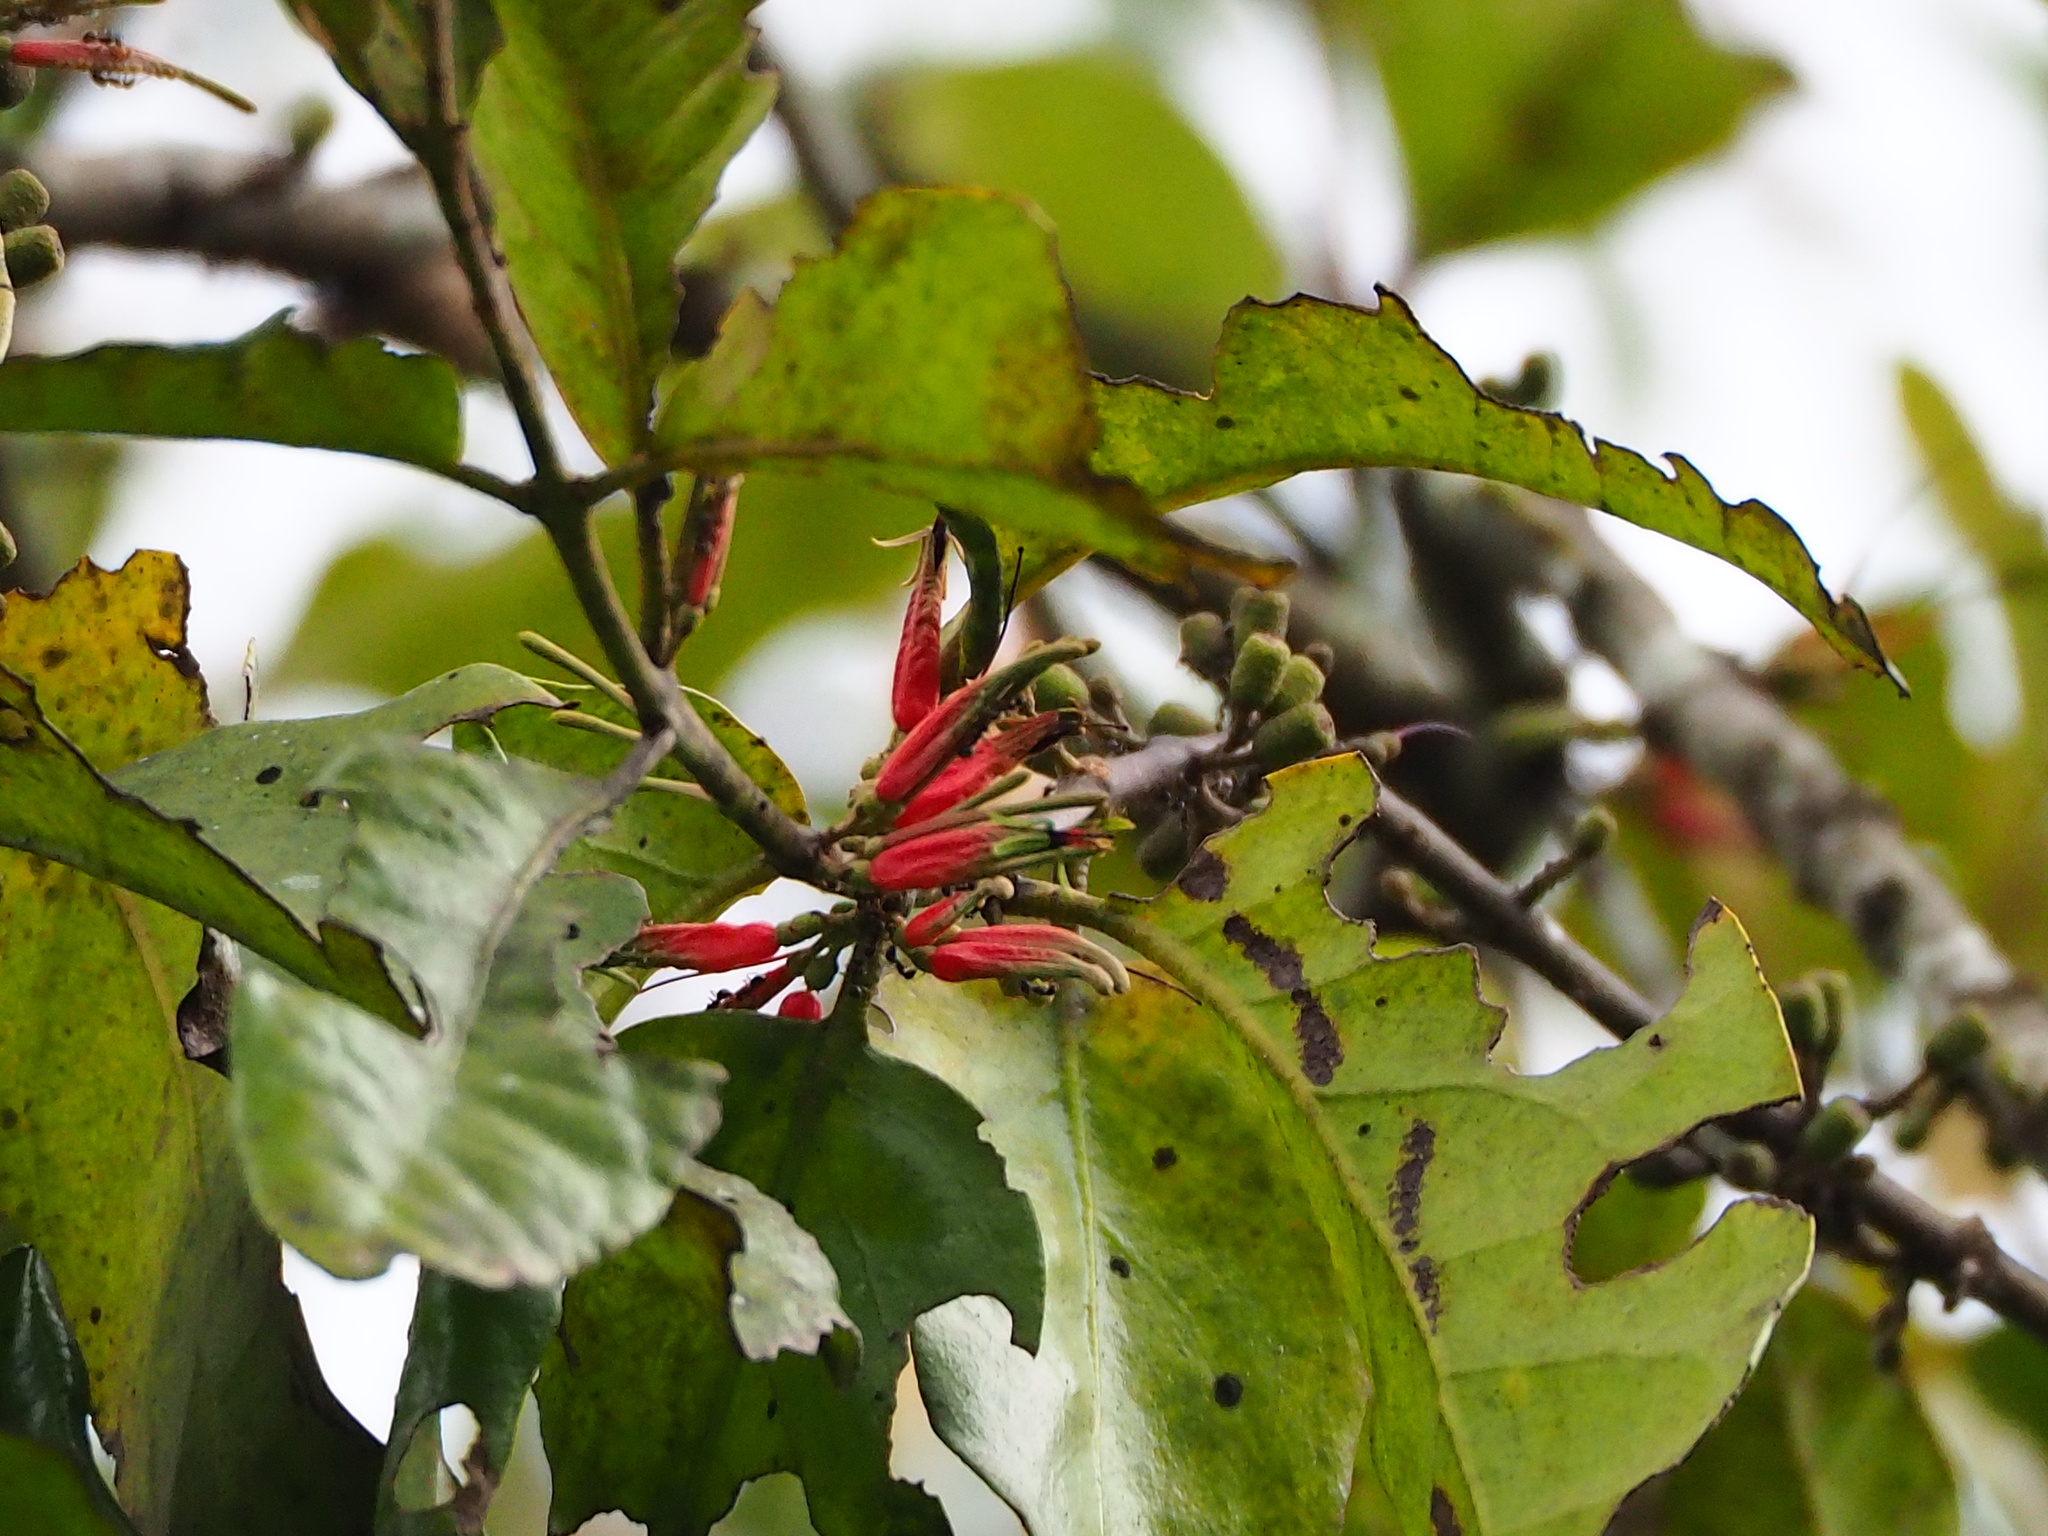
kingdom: Plantae
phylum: Tracheophyta
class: Magnoliopsida
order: Santalales
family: Loranthaceae
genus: Taxillus
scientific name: Taxillus liquidambaricola
